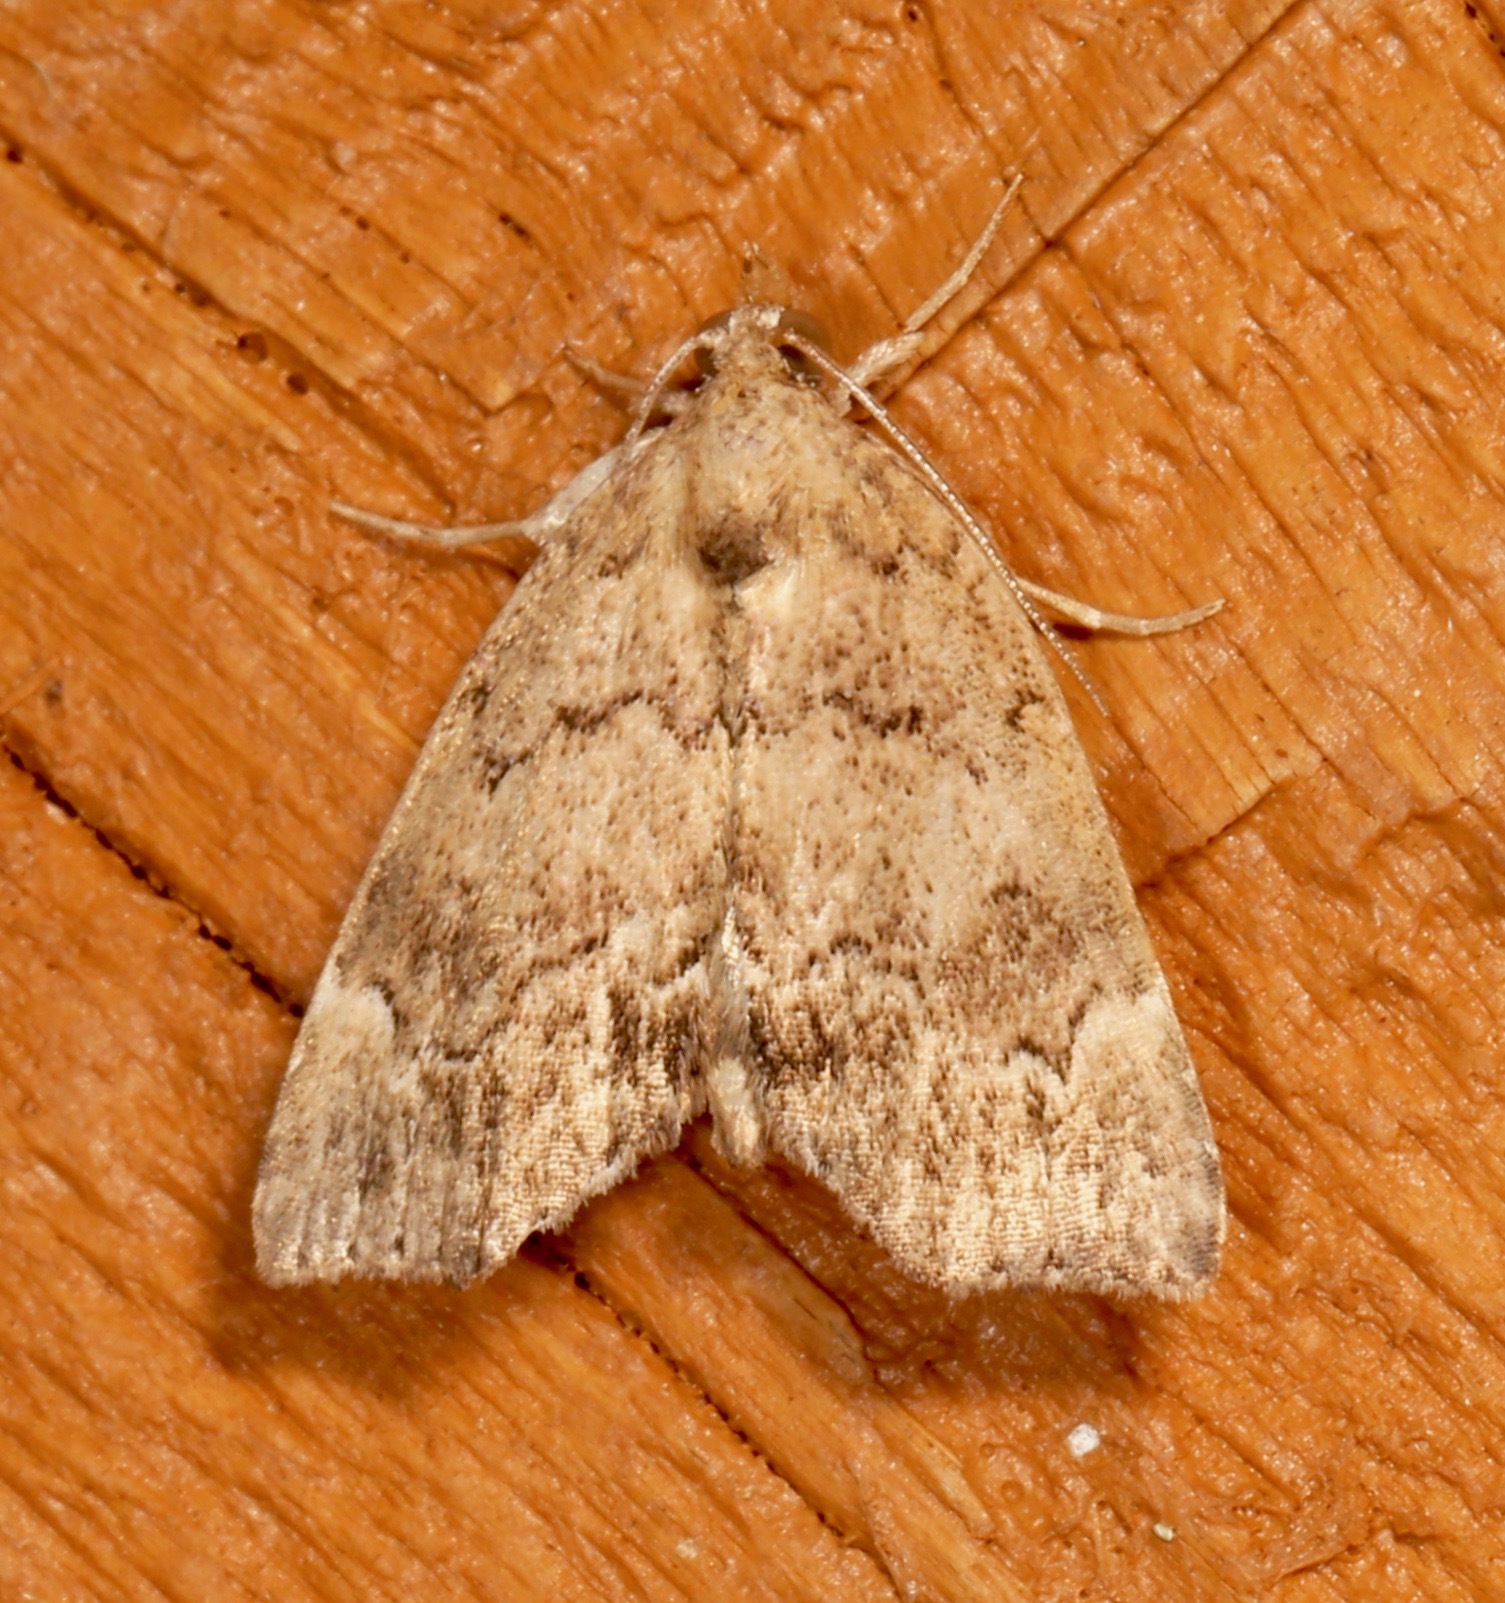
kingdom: Animalia
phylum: Arthropoda
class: Insecta
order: Lepidoptera
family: Erebidae
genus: Cutina
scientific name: Cutina aluticolor
